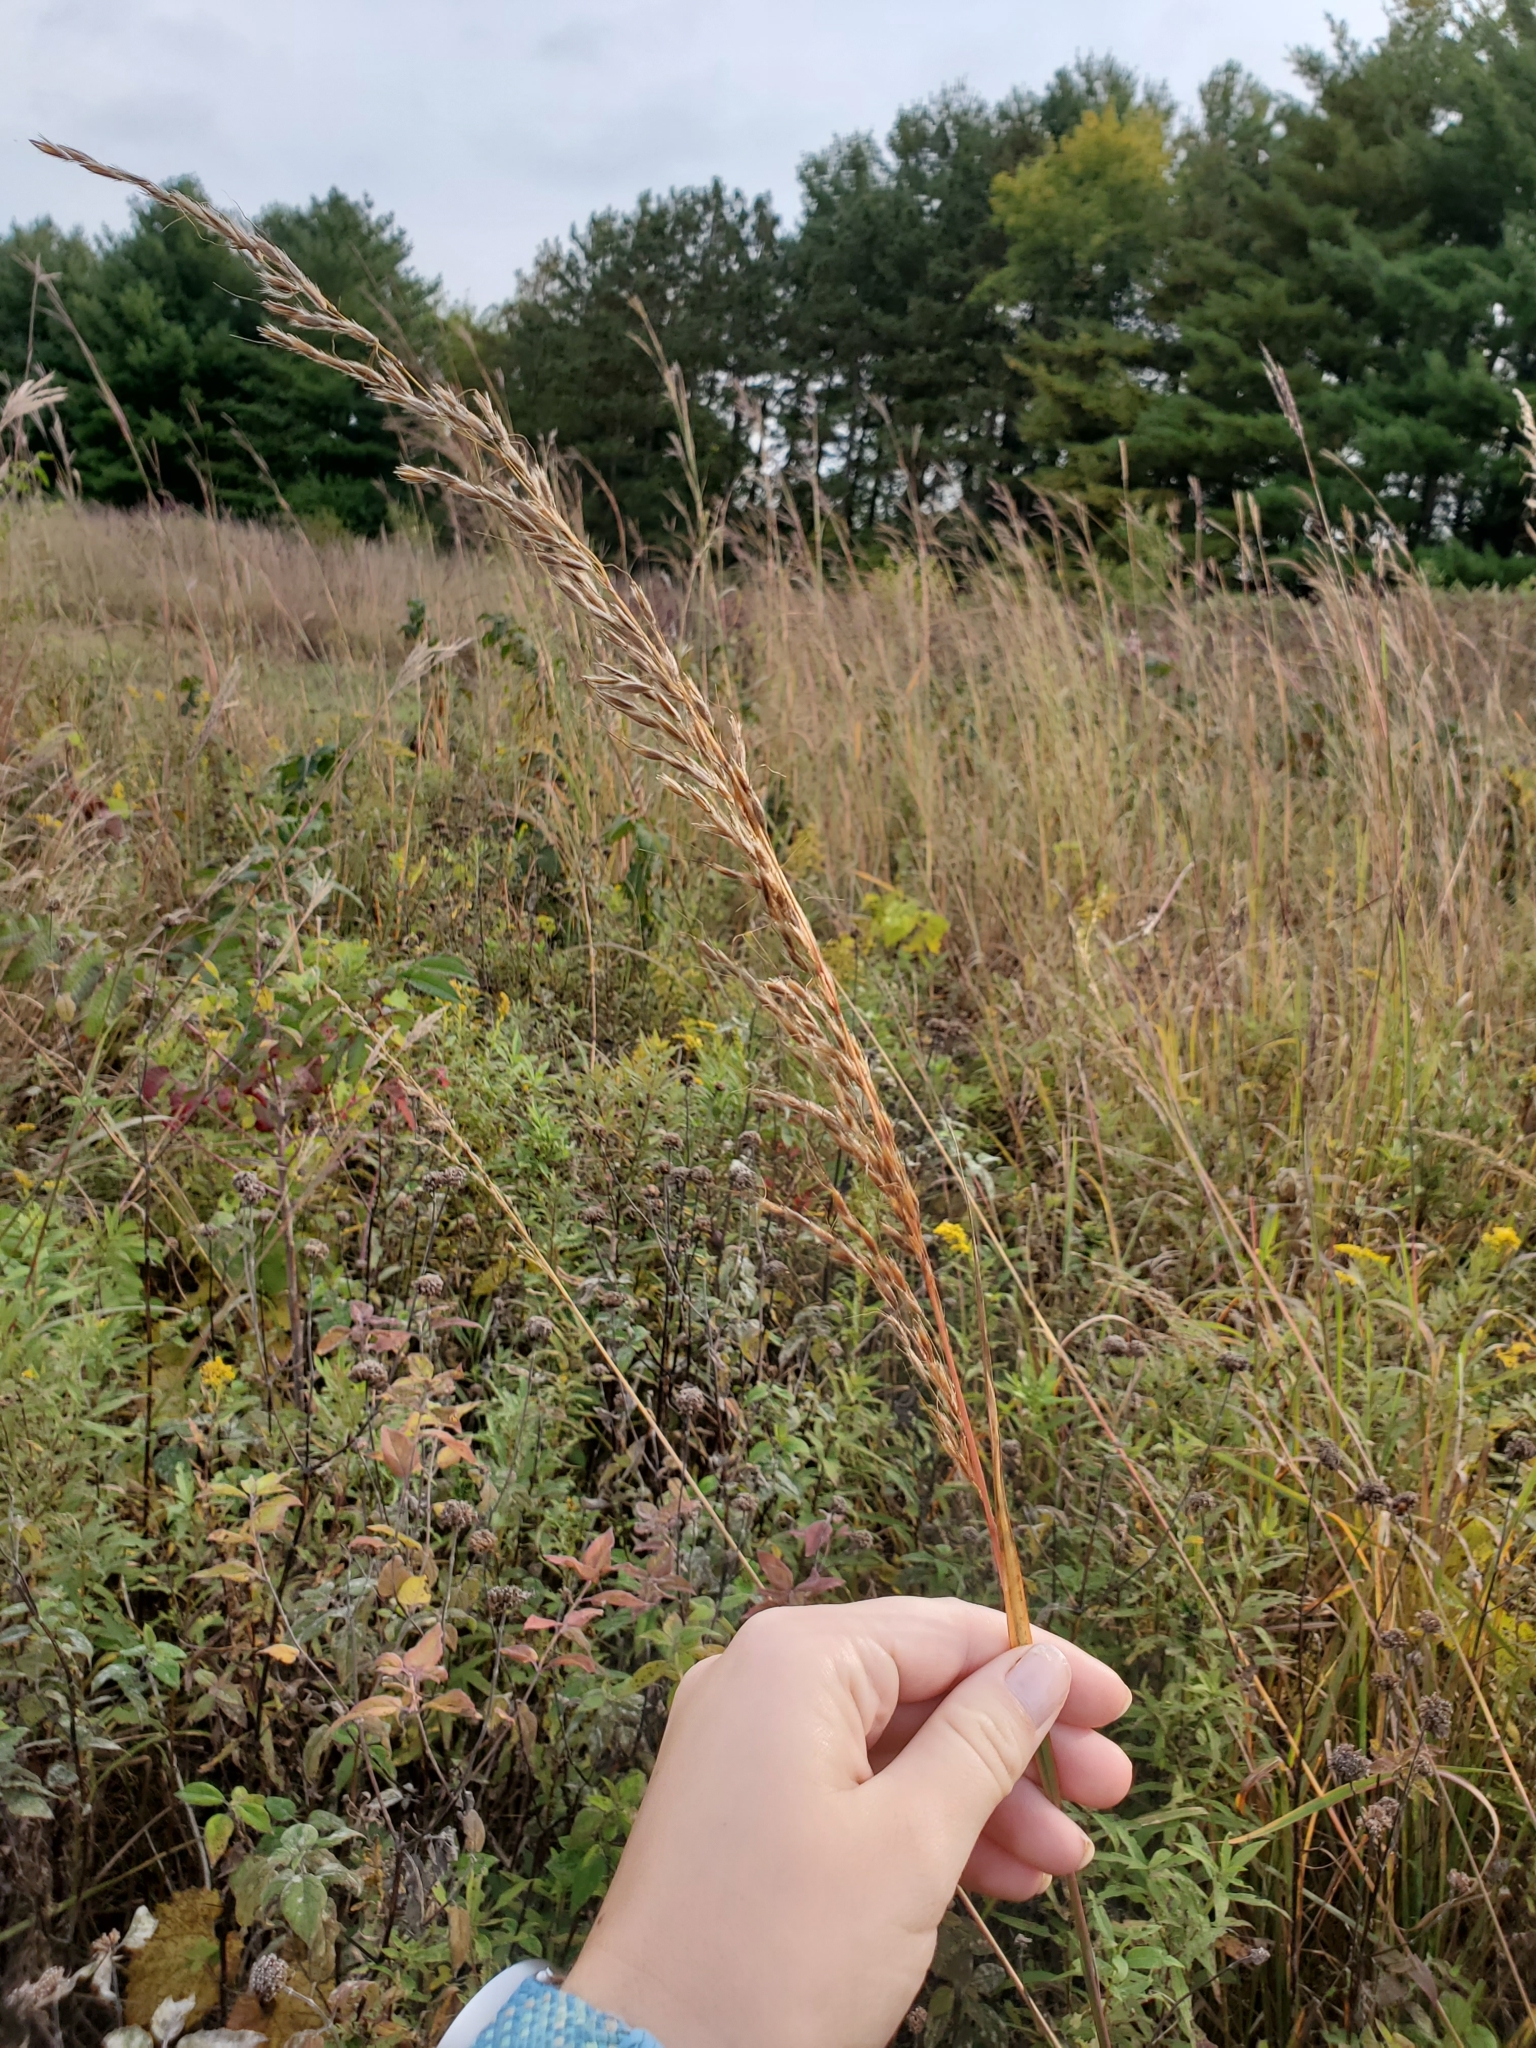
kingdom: Plantae
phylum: Tracheophyta
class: Liliopsida
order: Poales
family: Poaceae
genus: Sorghastrum
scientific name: Sorghastrum nutans
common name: Indian grass
